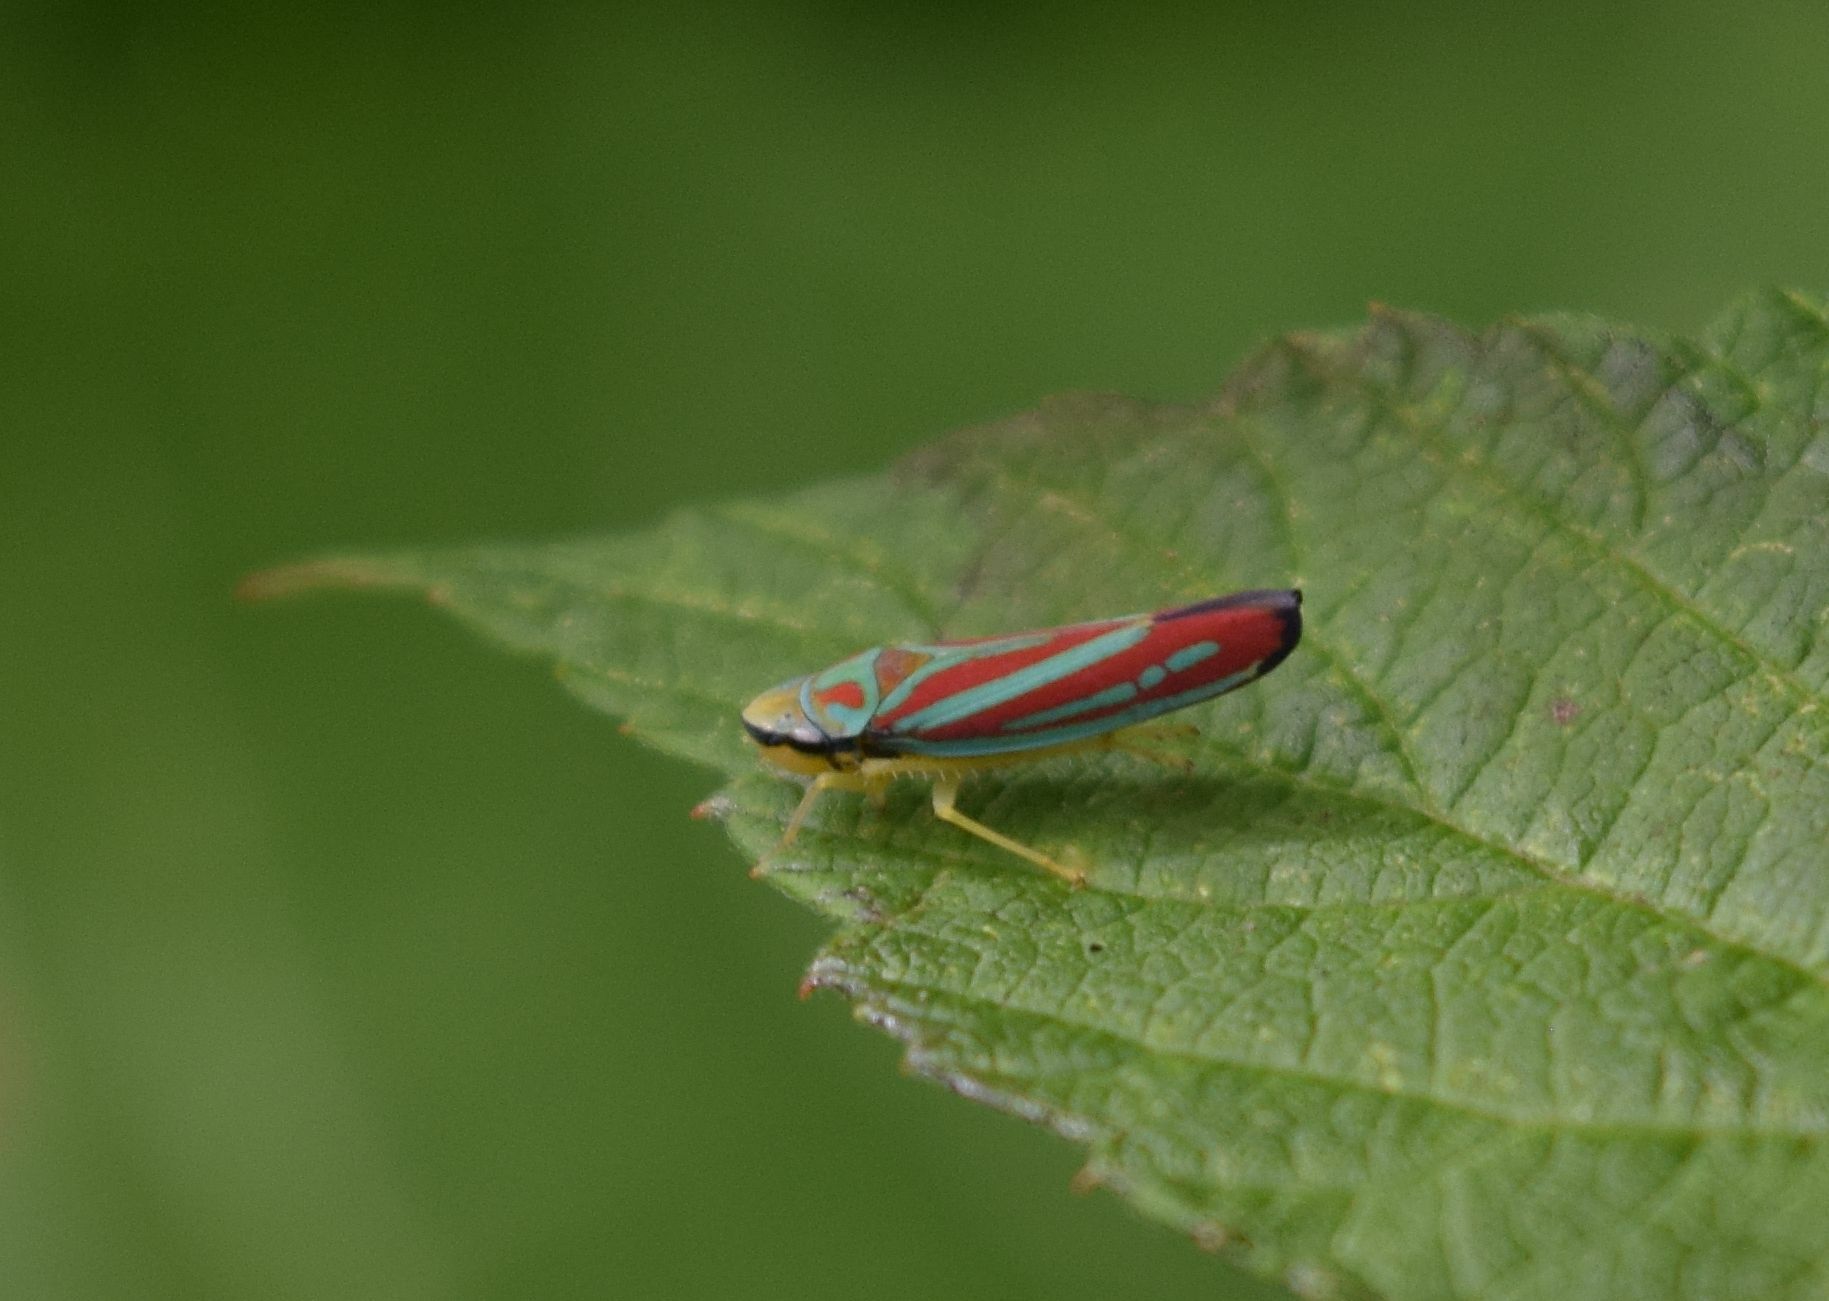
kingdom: Animalia
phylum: Arthropoda
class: Insecta
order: Hemiptera
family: Cicadellidae
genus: Graphocephala
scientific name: Graphocephala coccinea
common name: Candy-striped leafhopper
